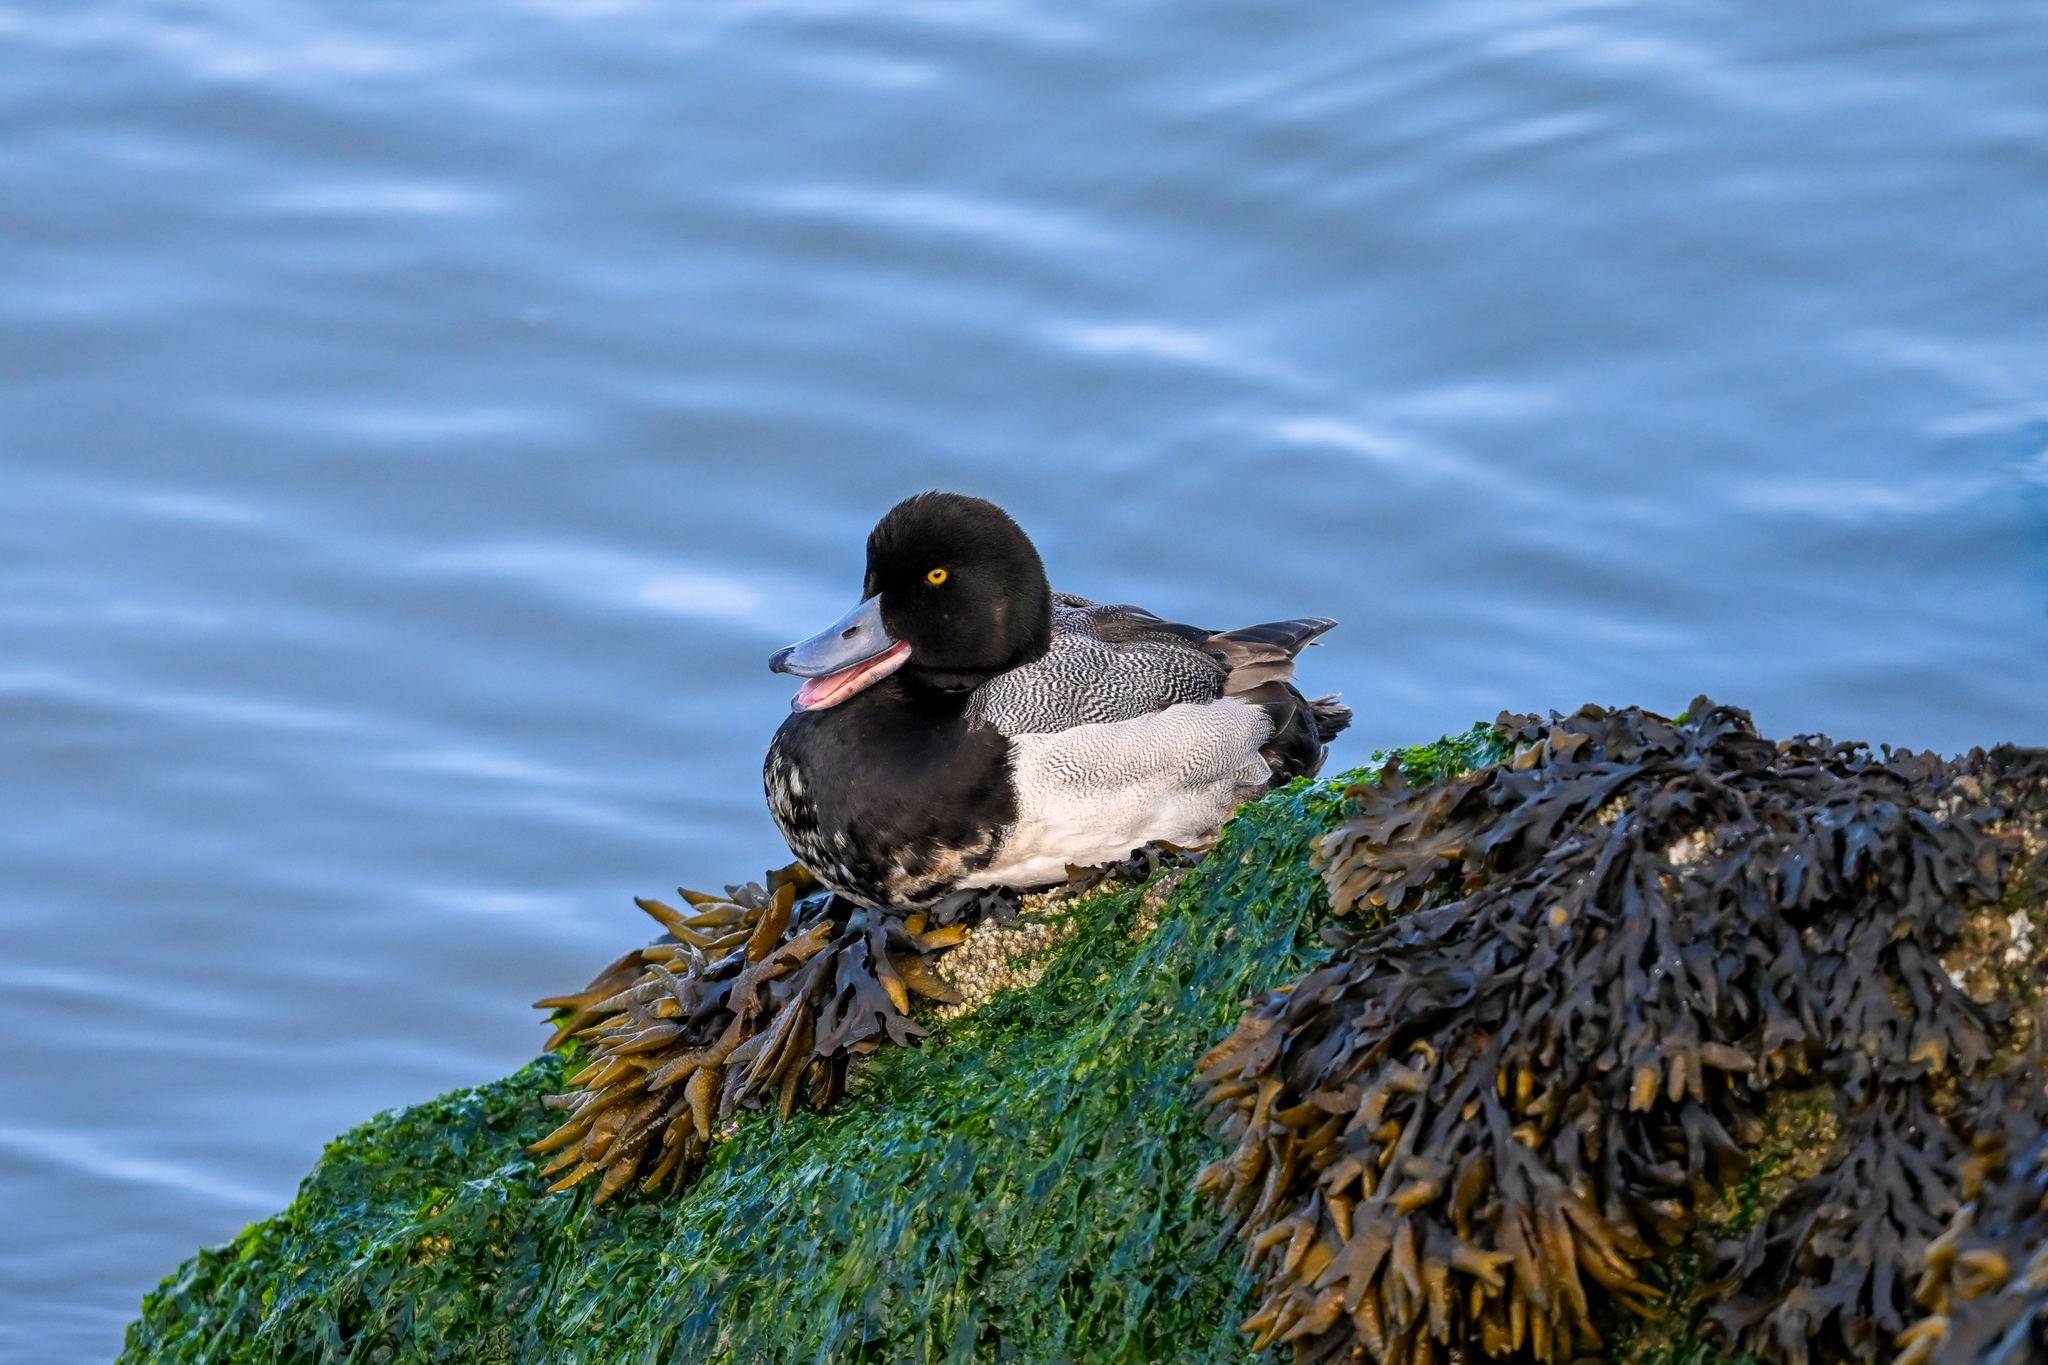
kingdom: Animalia
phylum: Chordata
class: Aves
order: Anseriformes
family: Anatidae
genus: Aythya
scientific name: Aythya marila
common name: Greater scaup
